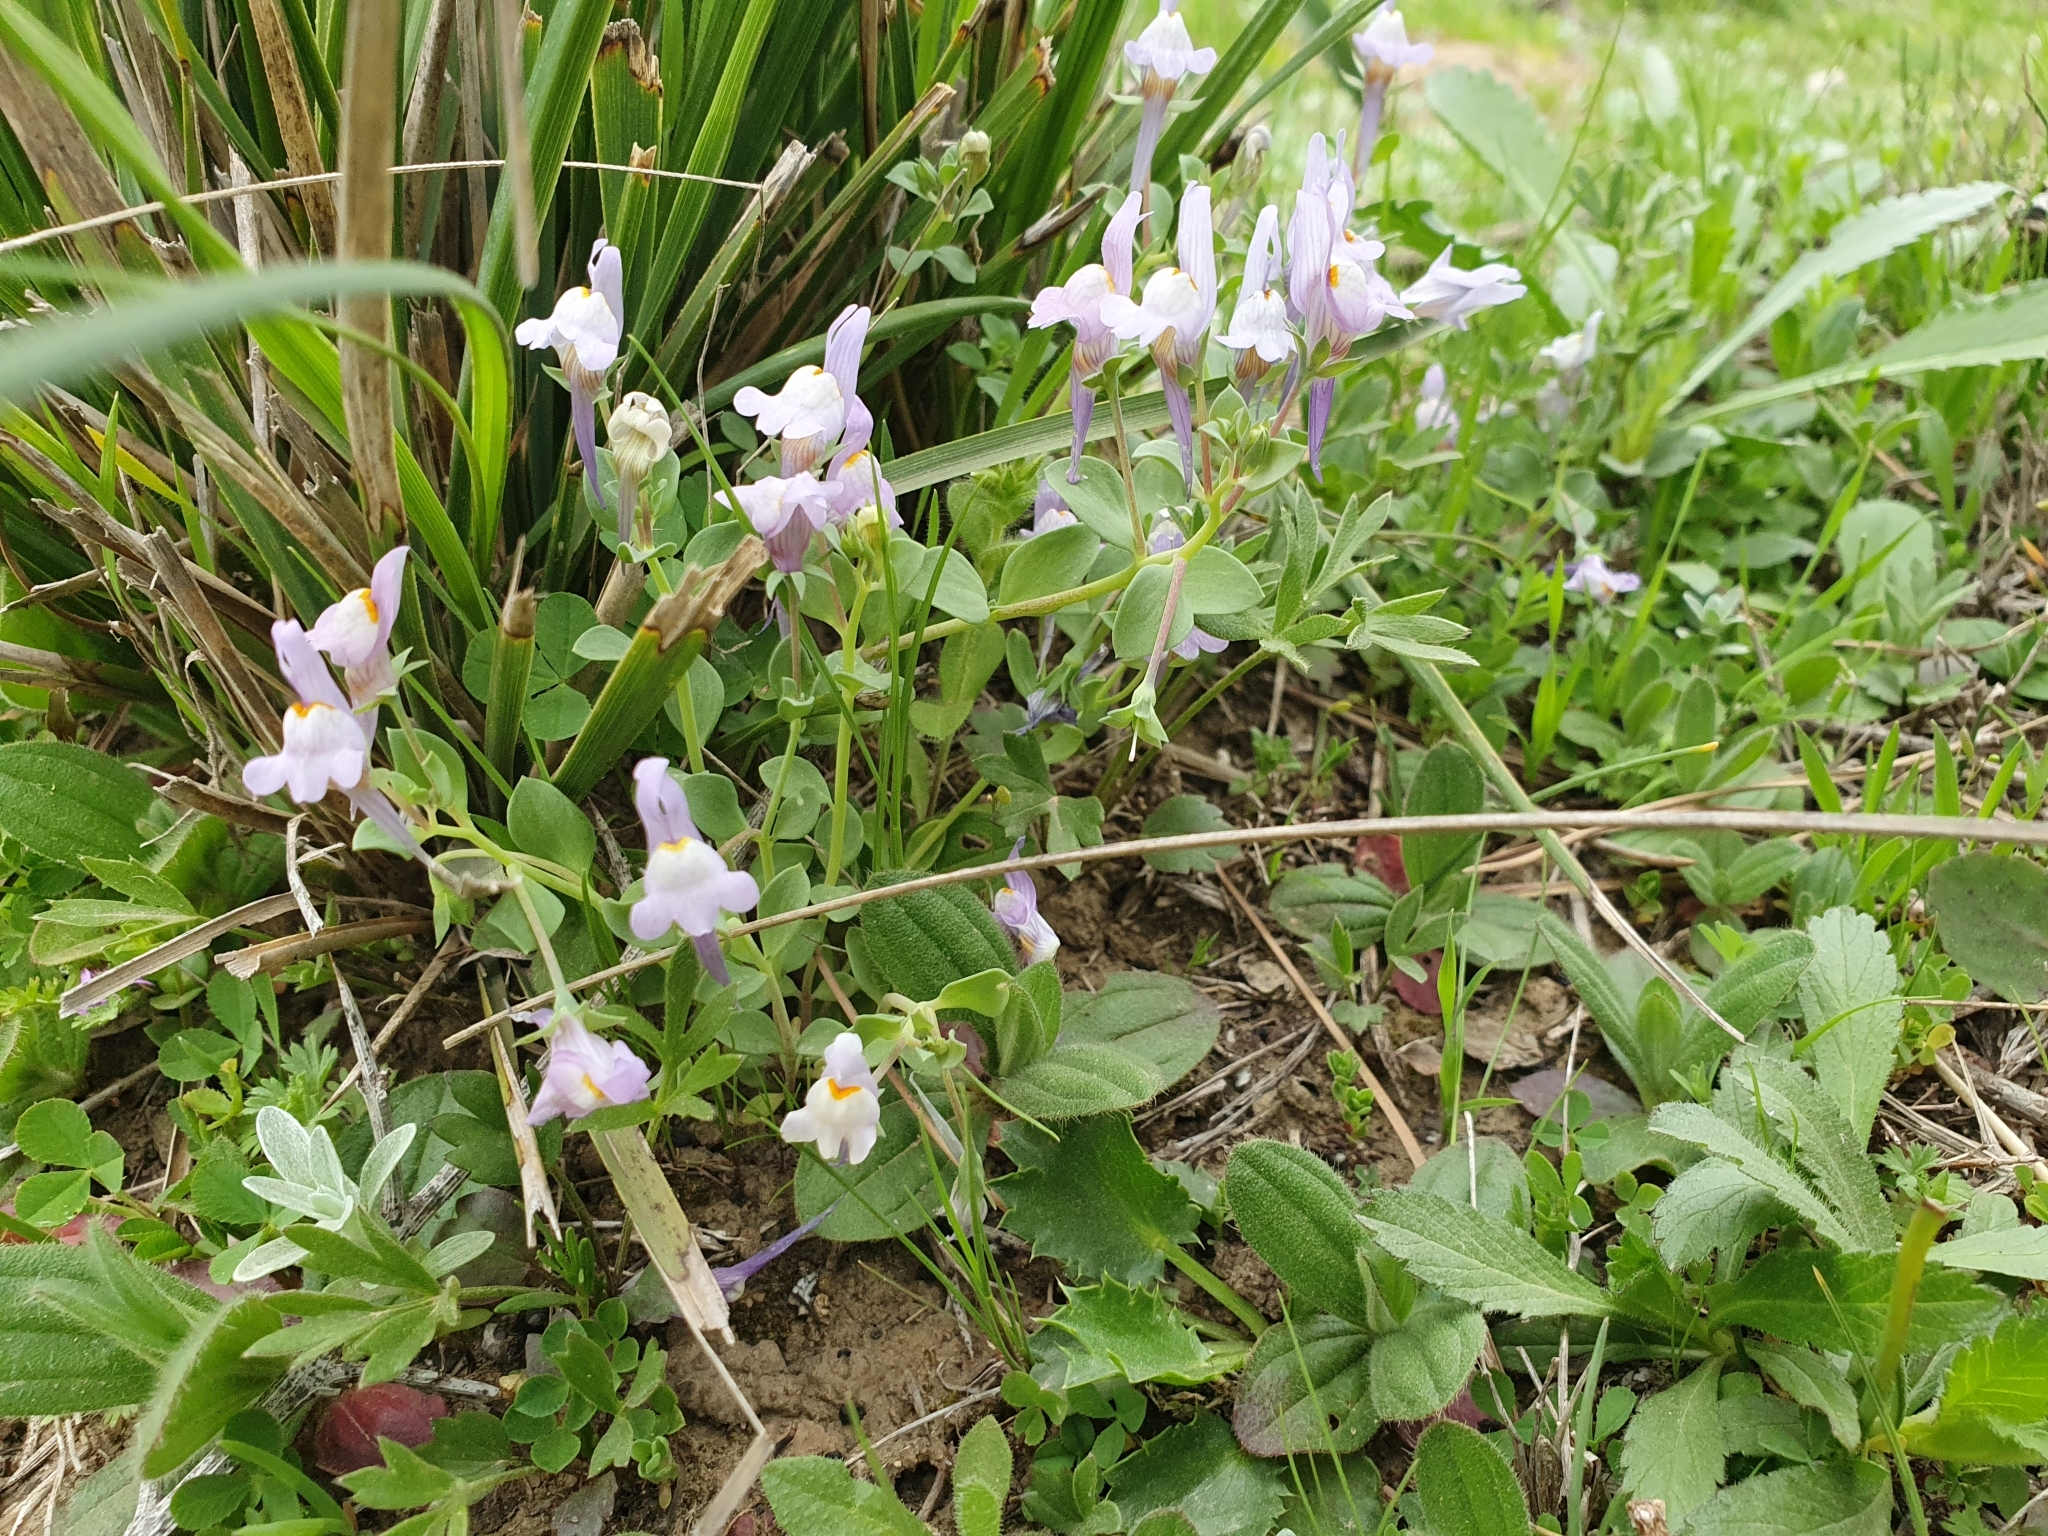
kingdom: Plantae
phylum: Tracheophyta
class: Magnoliopsida
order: Lamiales
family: Plantaginaceae
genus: Linaria
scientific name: Linaria reflexa
